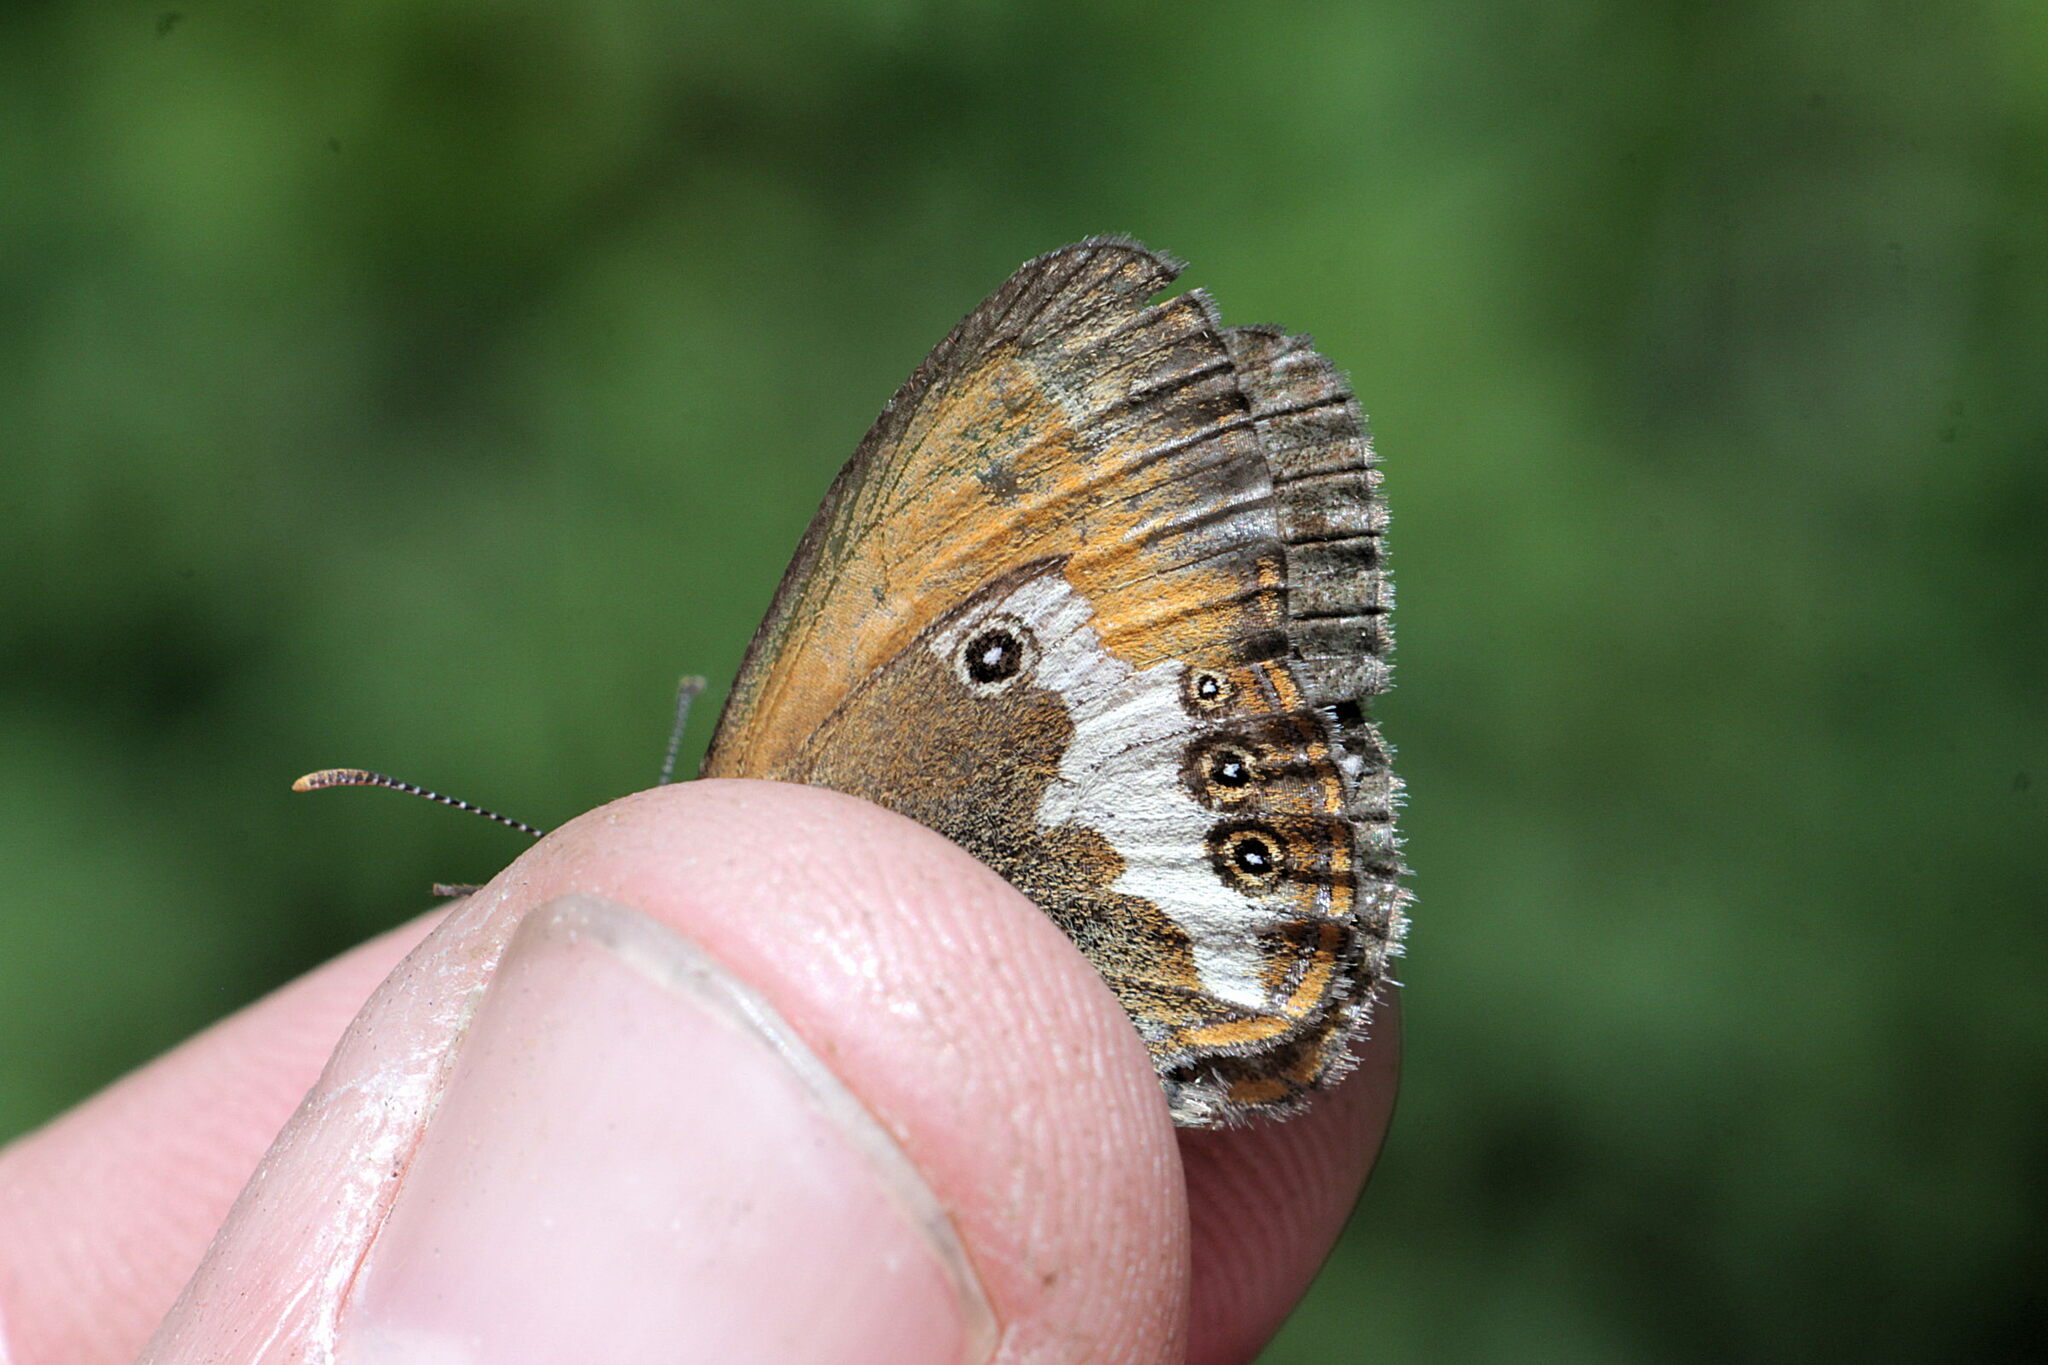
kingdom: Animalia
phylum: Arthropoda
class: Insecta
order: Lepidoptera
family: Nymphalidae
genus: Coenonympha
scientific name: Coenonympha arcania
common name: Pearly heath
